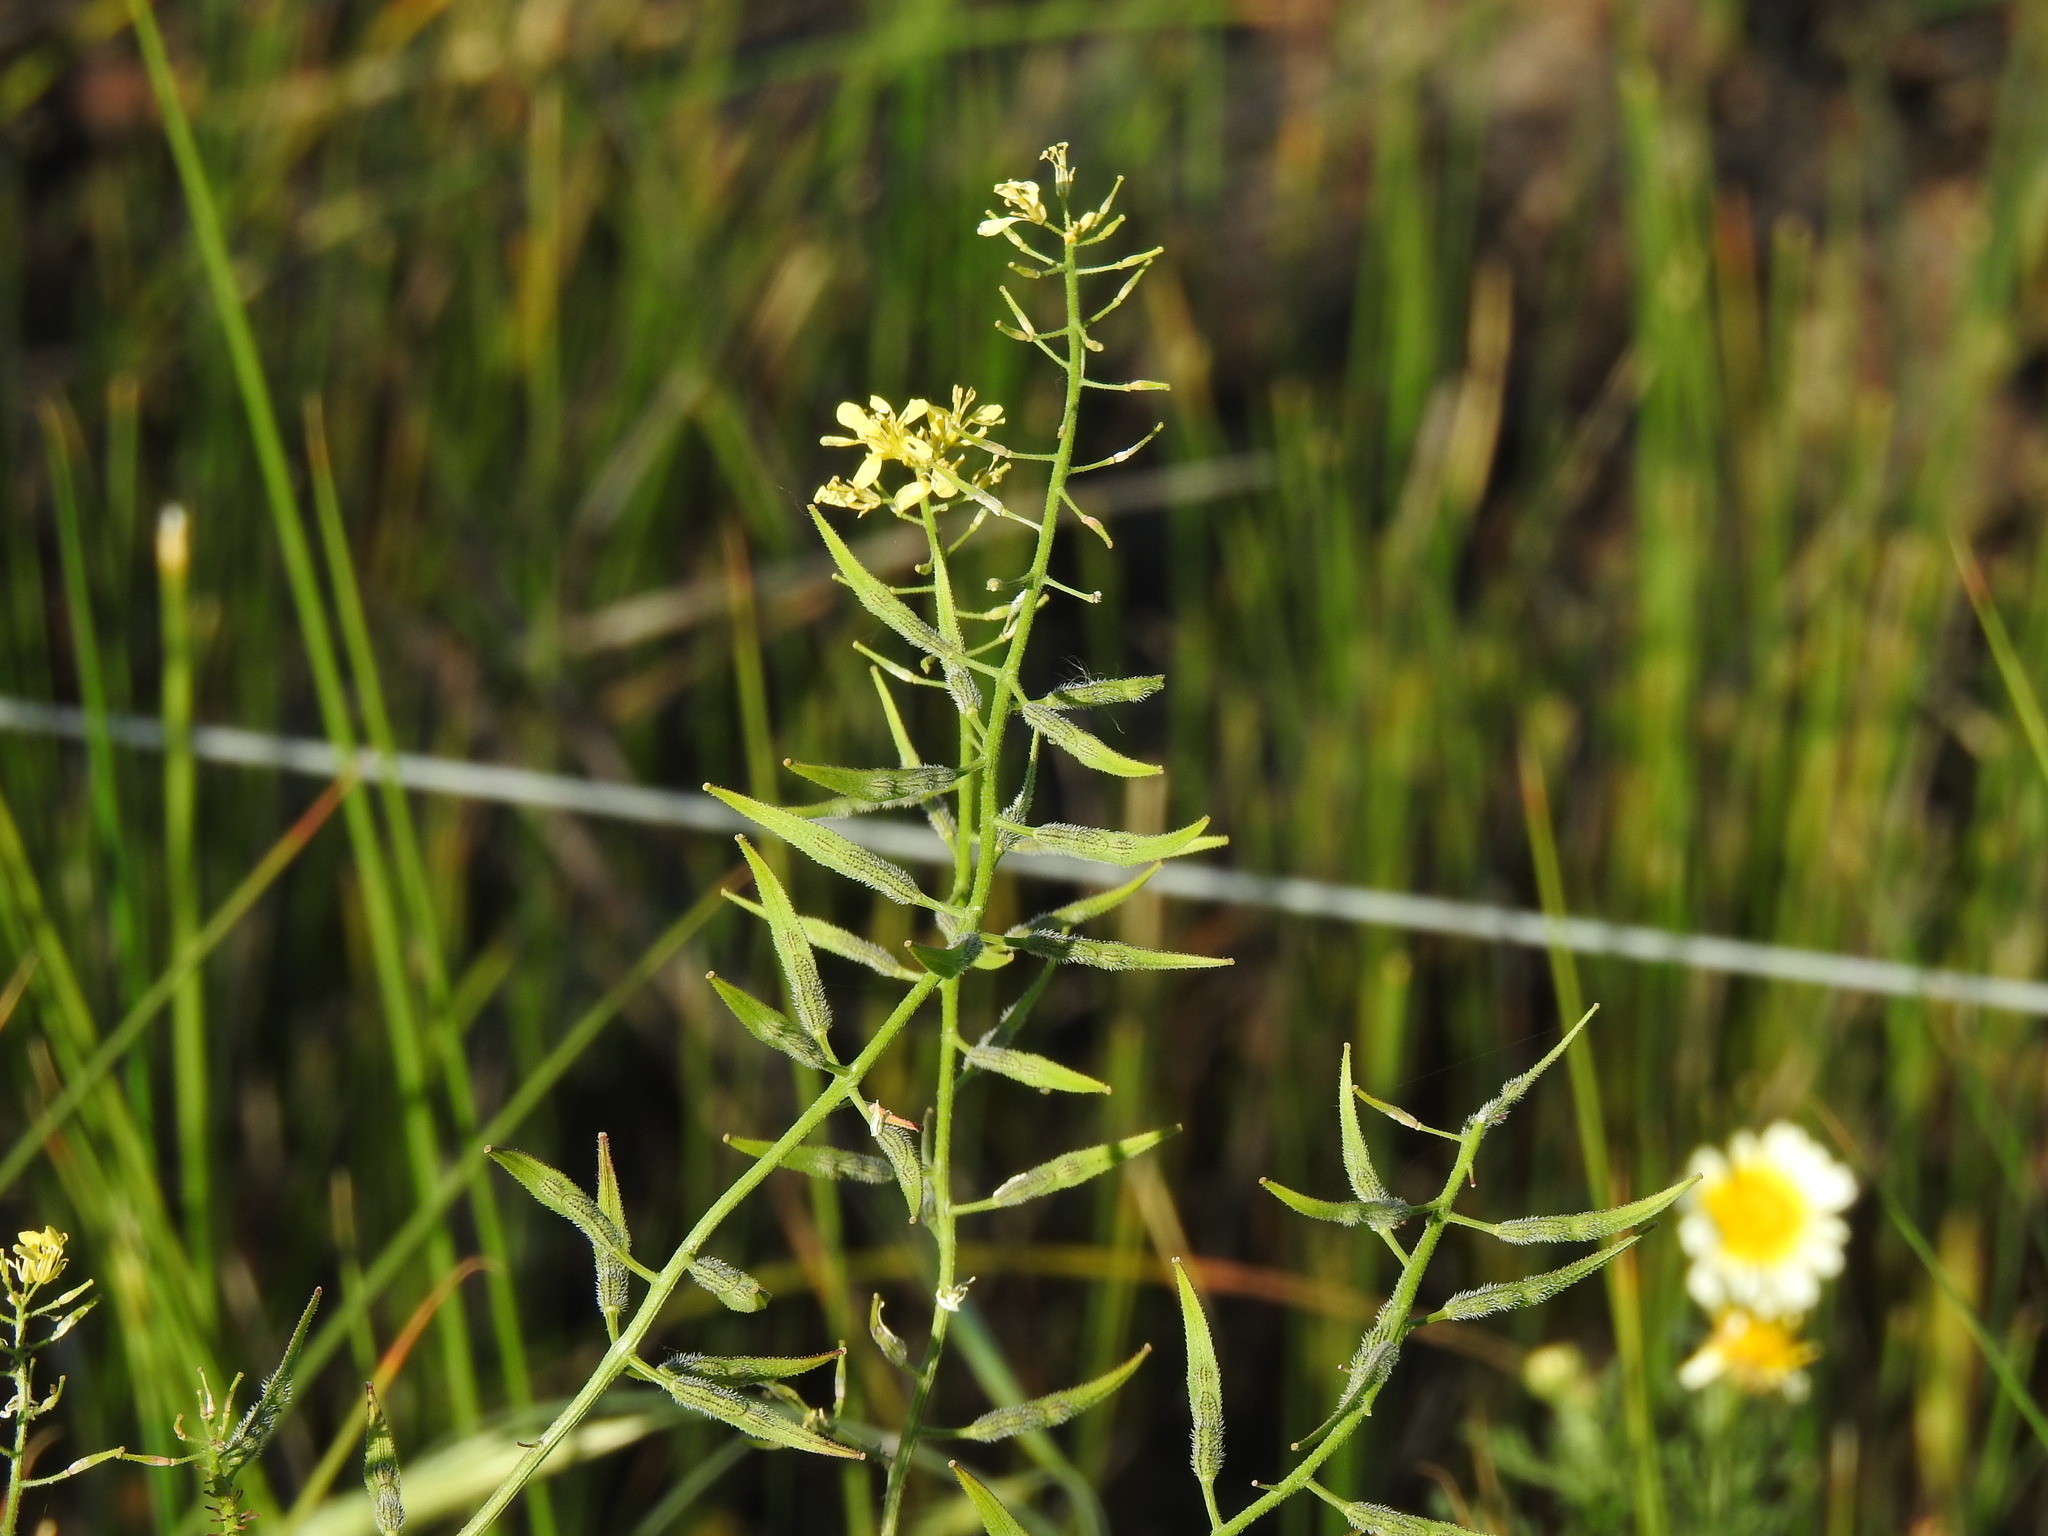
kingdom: Plantae
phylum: Tracheophyta
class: Magnoliopsida
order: Brassicales
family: Brassicaceae
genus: Sinapis
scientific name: Sinapis alba
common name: White mustard
